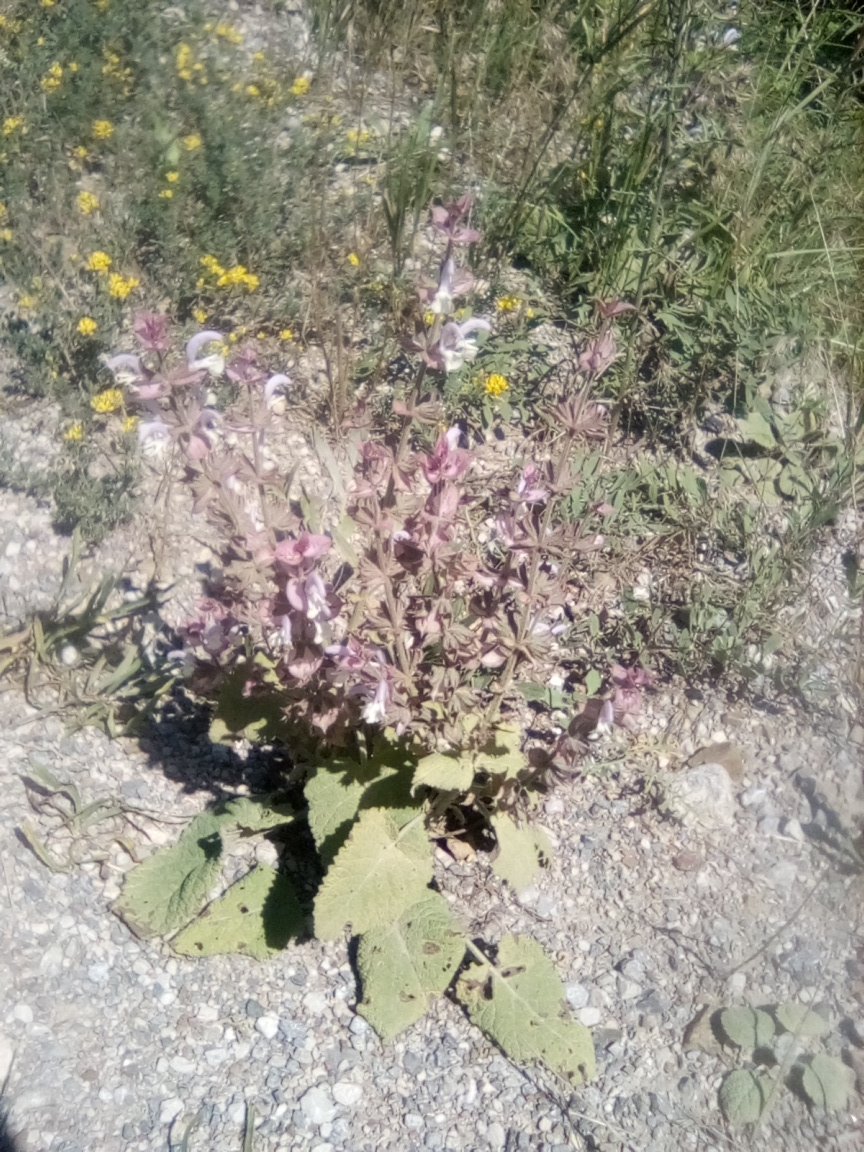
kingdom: Plantae
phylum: Tracheophyta
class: Magnoliopsida
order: Lamiales
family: Lamiaceae
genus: Salvia
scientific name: Salvia sclarea
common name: Clary
